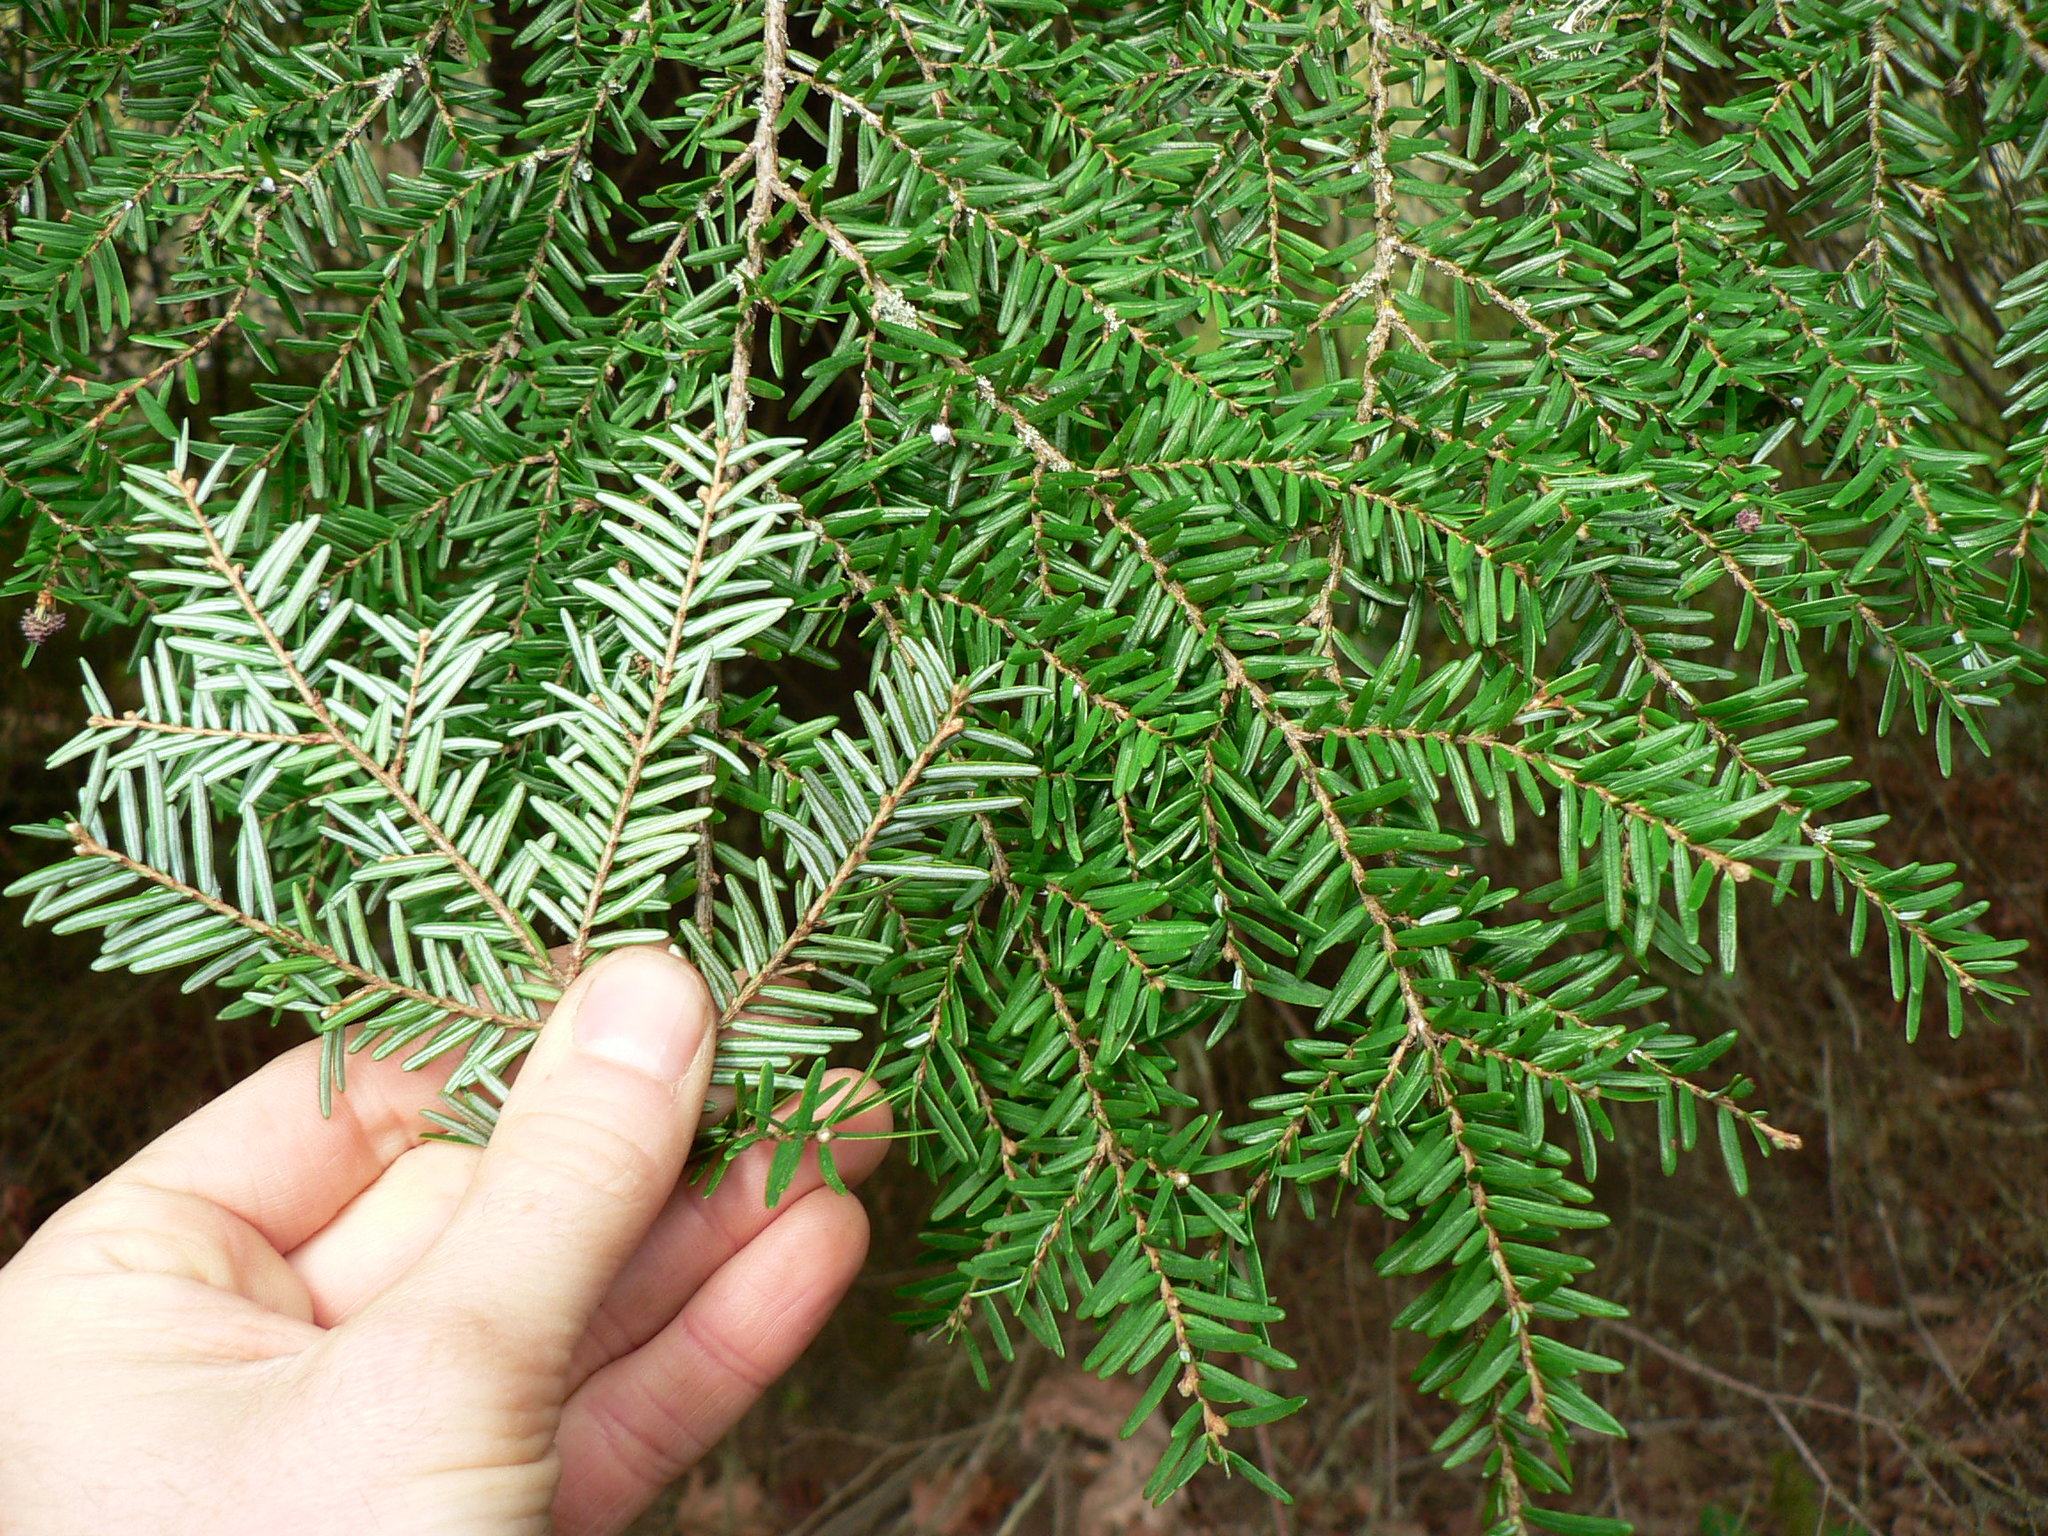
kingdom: Plantae
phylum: Tracheophyta
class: Pinopsida
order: Pinales
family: Pinaceae
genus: Tsuga
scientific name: Tsuga heterophylla
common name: Western hemlock
